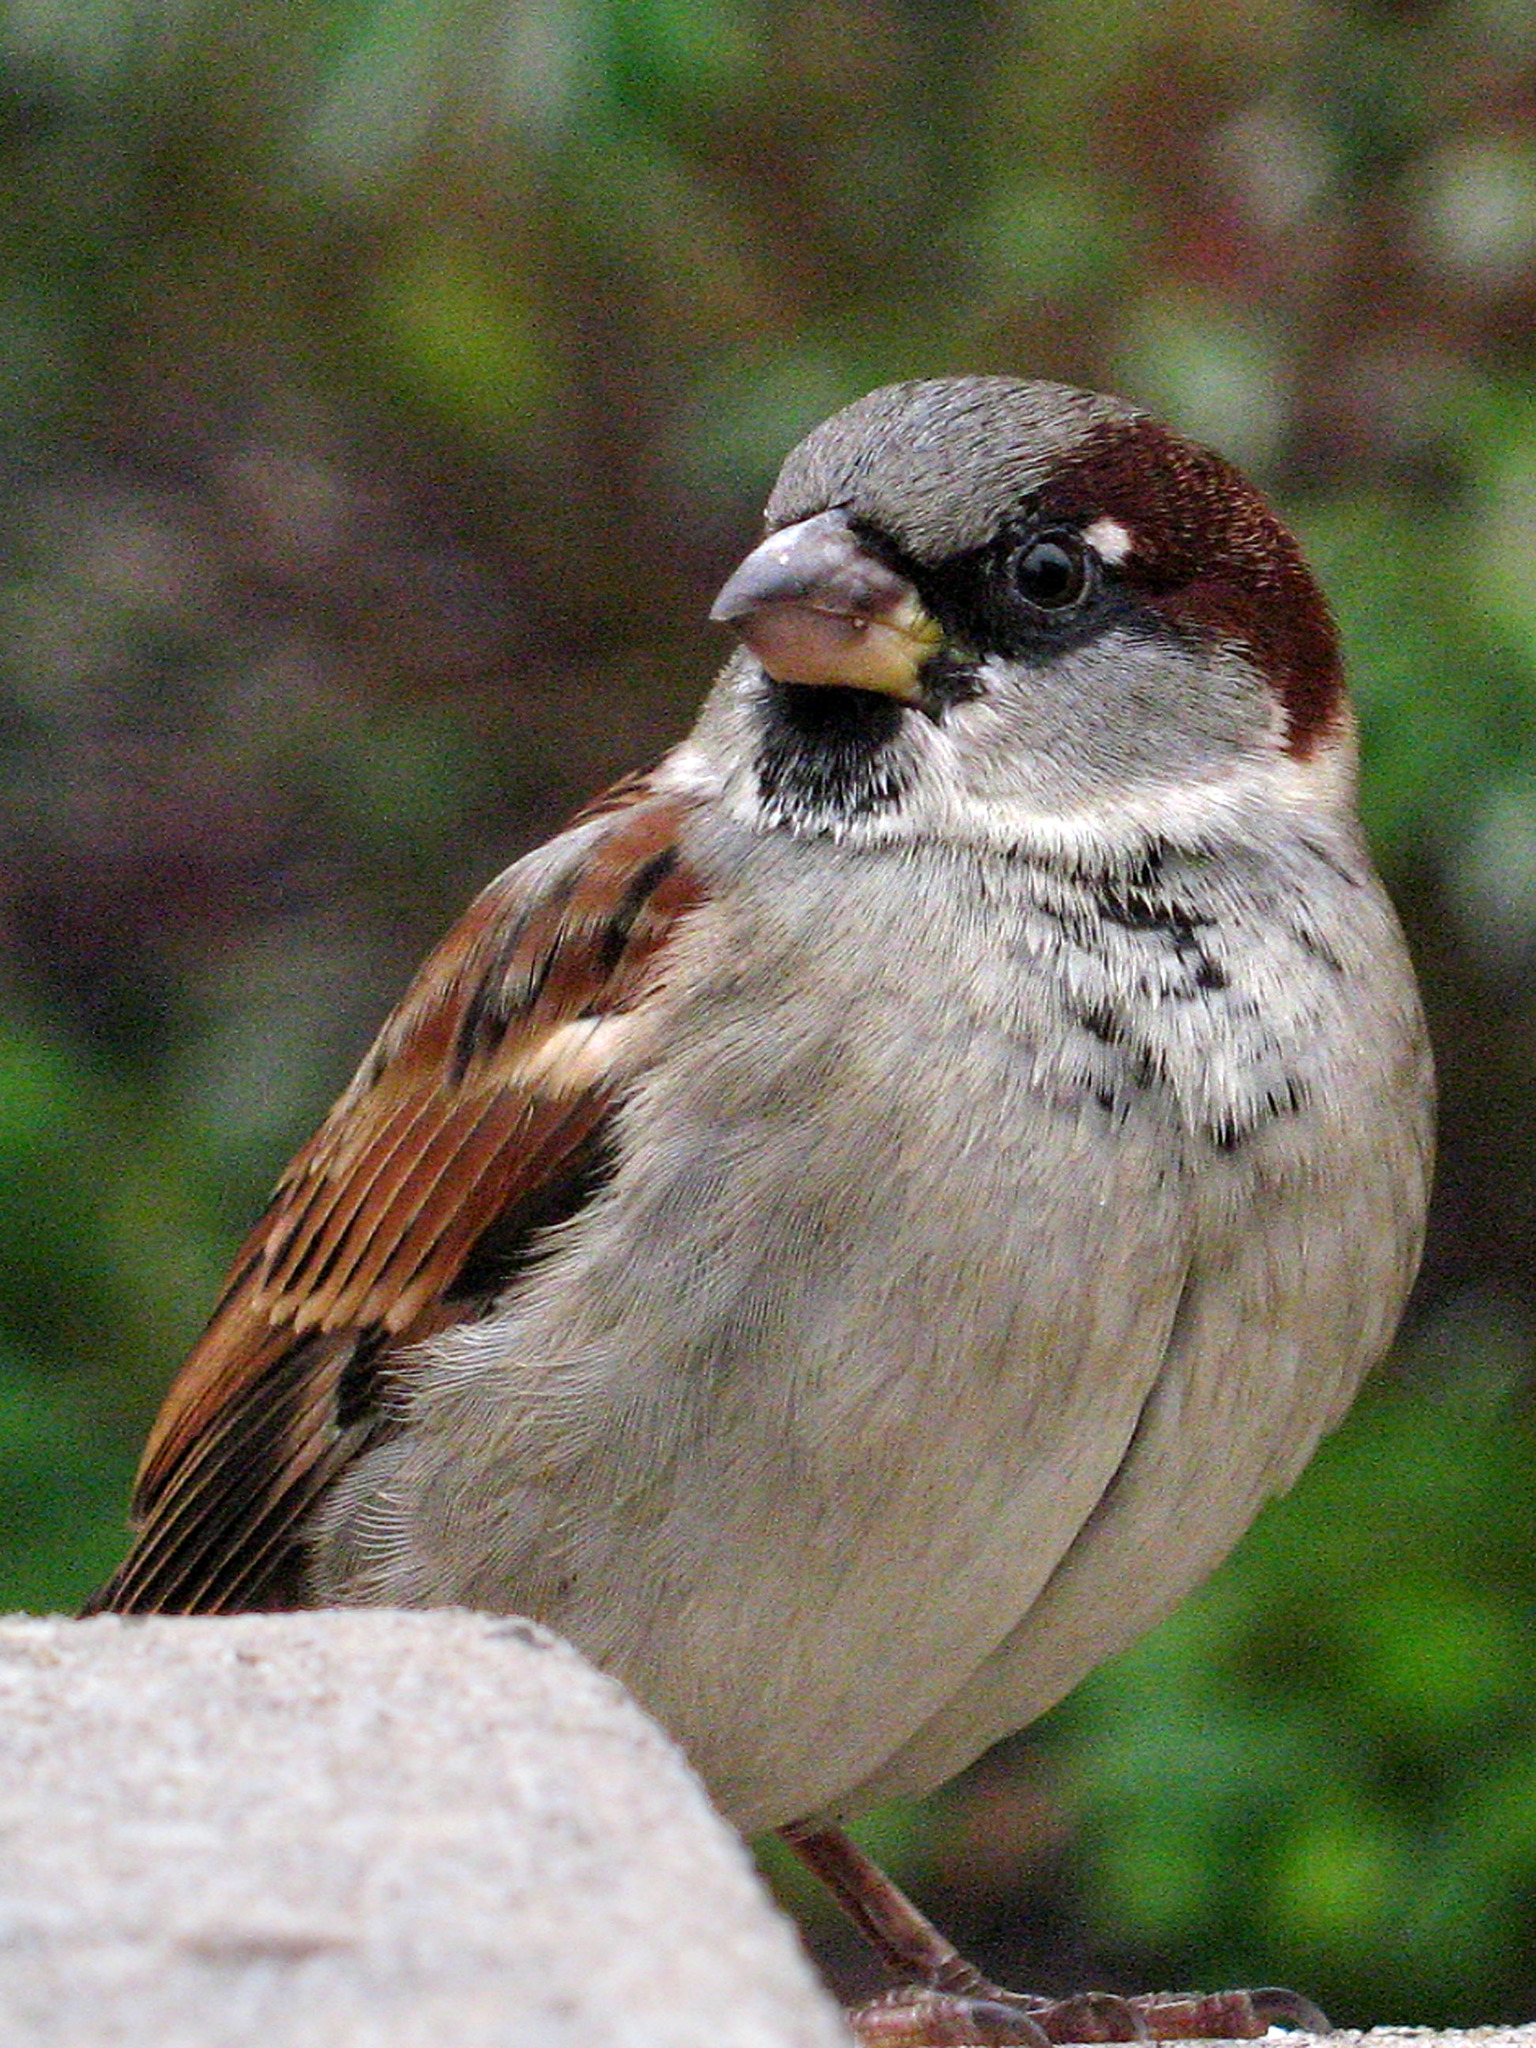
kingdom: Animalia
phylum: Chordata
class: Aves
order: Passeriformes
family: Passeridae
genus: Passer
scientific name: Passer domesticus
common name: House sparrow
